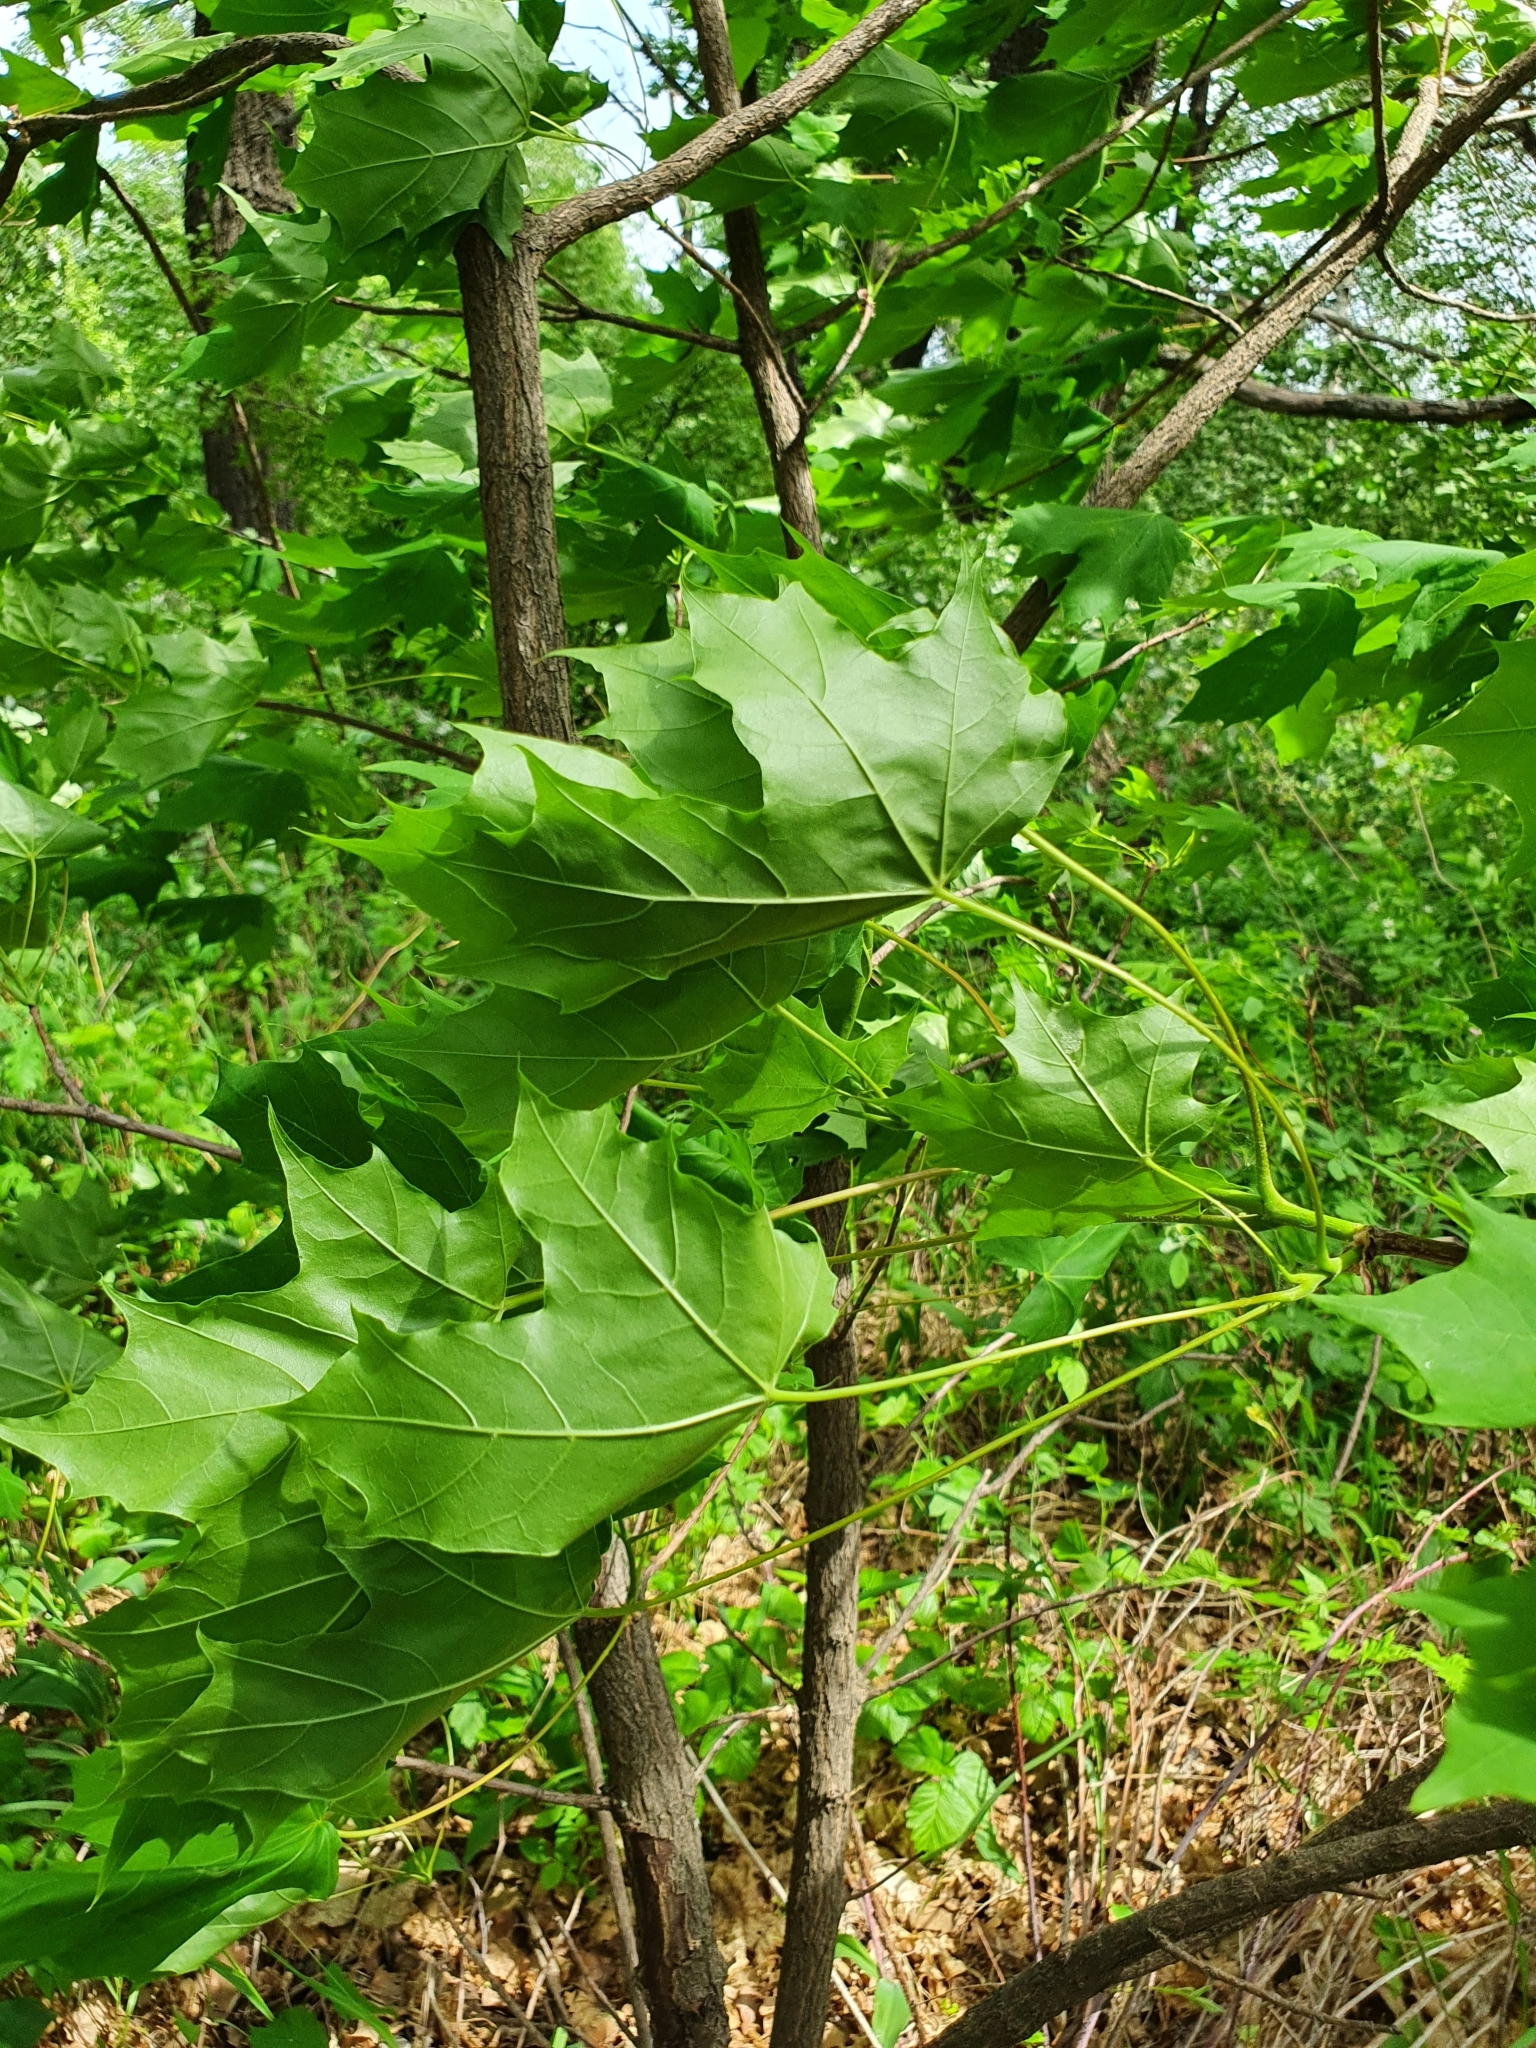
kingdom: Plantae
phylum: Tracheophyta
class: Magnoliopsida
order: Sapindales
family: Sapindaceae
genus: Acer
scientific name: Acer platanoides
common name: Norway maple
